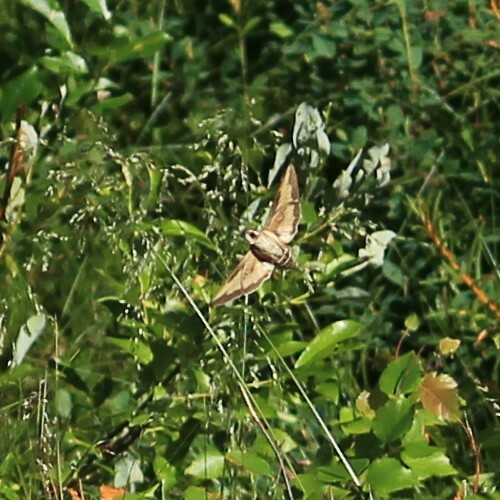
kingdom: Animalia
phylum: Arthropoda
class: Insecta
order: Lepidoptera
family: Sphingidae
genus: Hyles
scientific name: Hyles gallii
